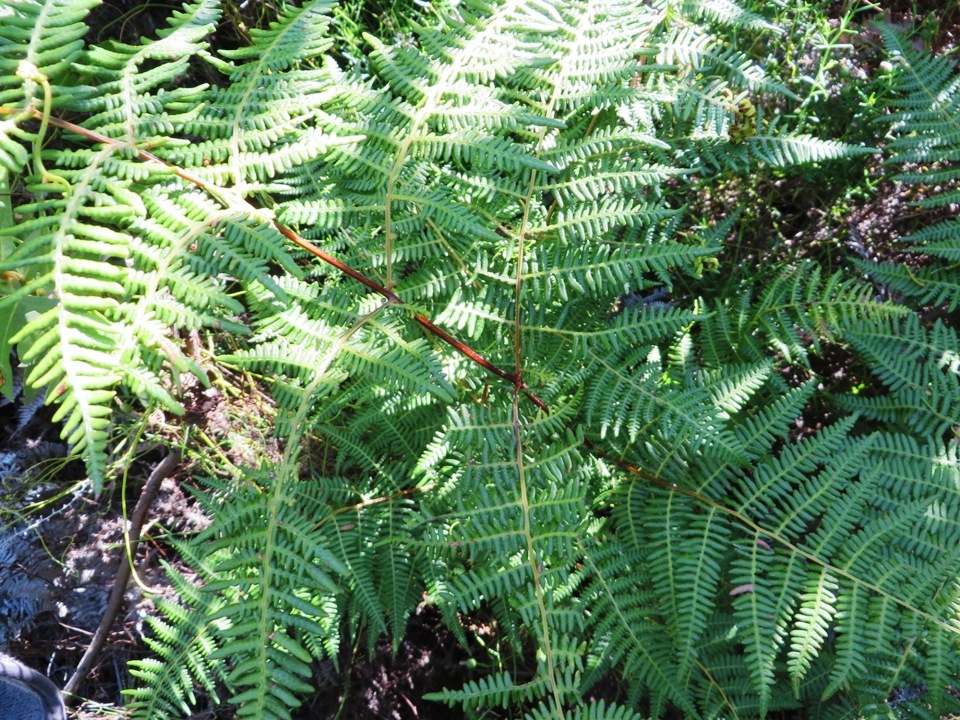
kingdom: Plantae
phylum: Tracheophyta
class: Polypodiopsida
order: Polypodiales
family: Dennstaedtiaceae
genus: Pteridium
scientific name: Pteridium aquilinum
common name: Bracken
